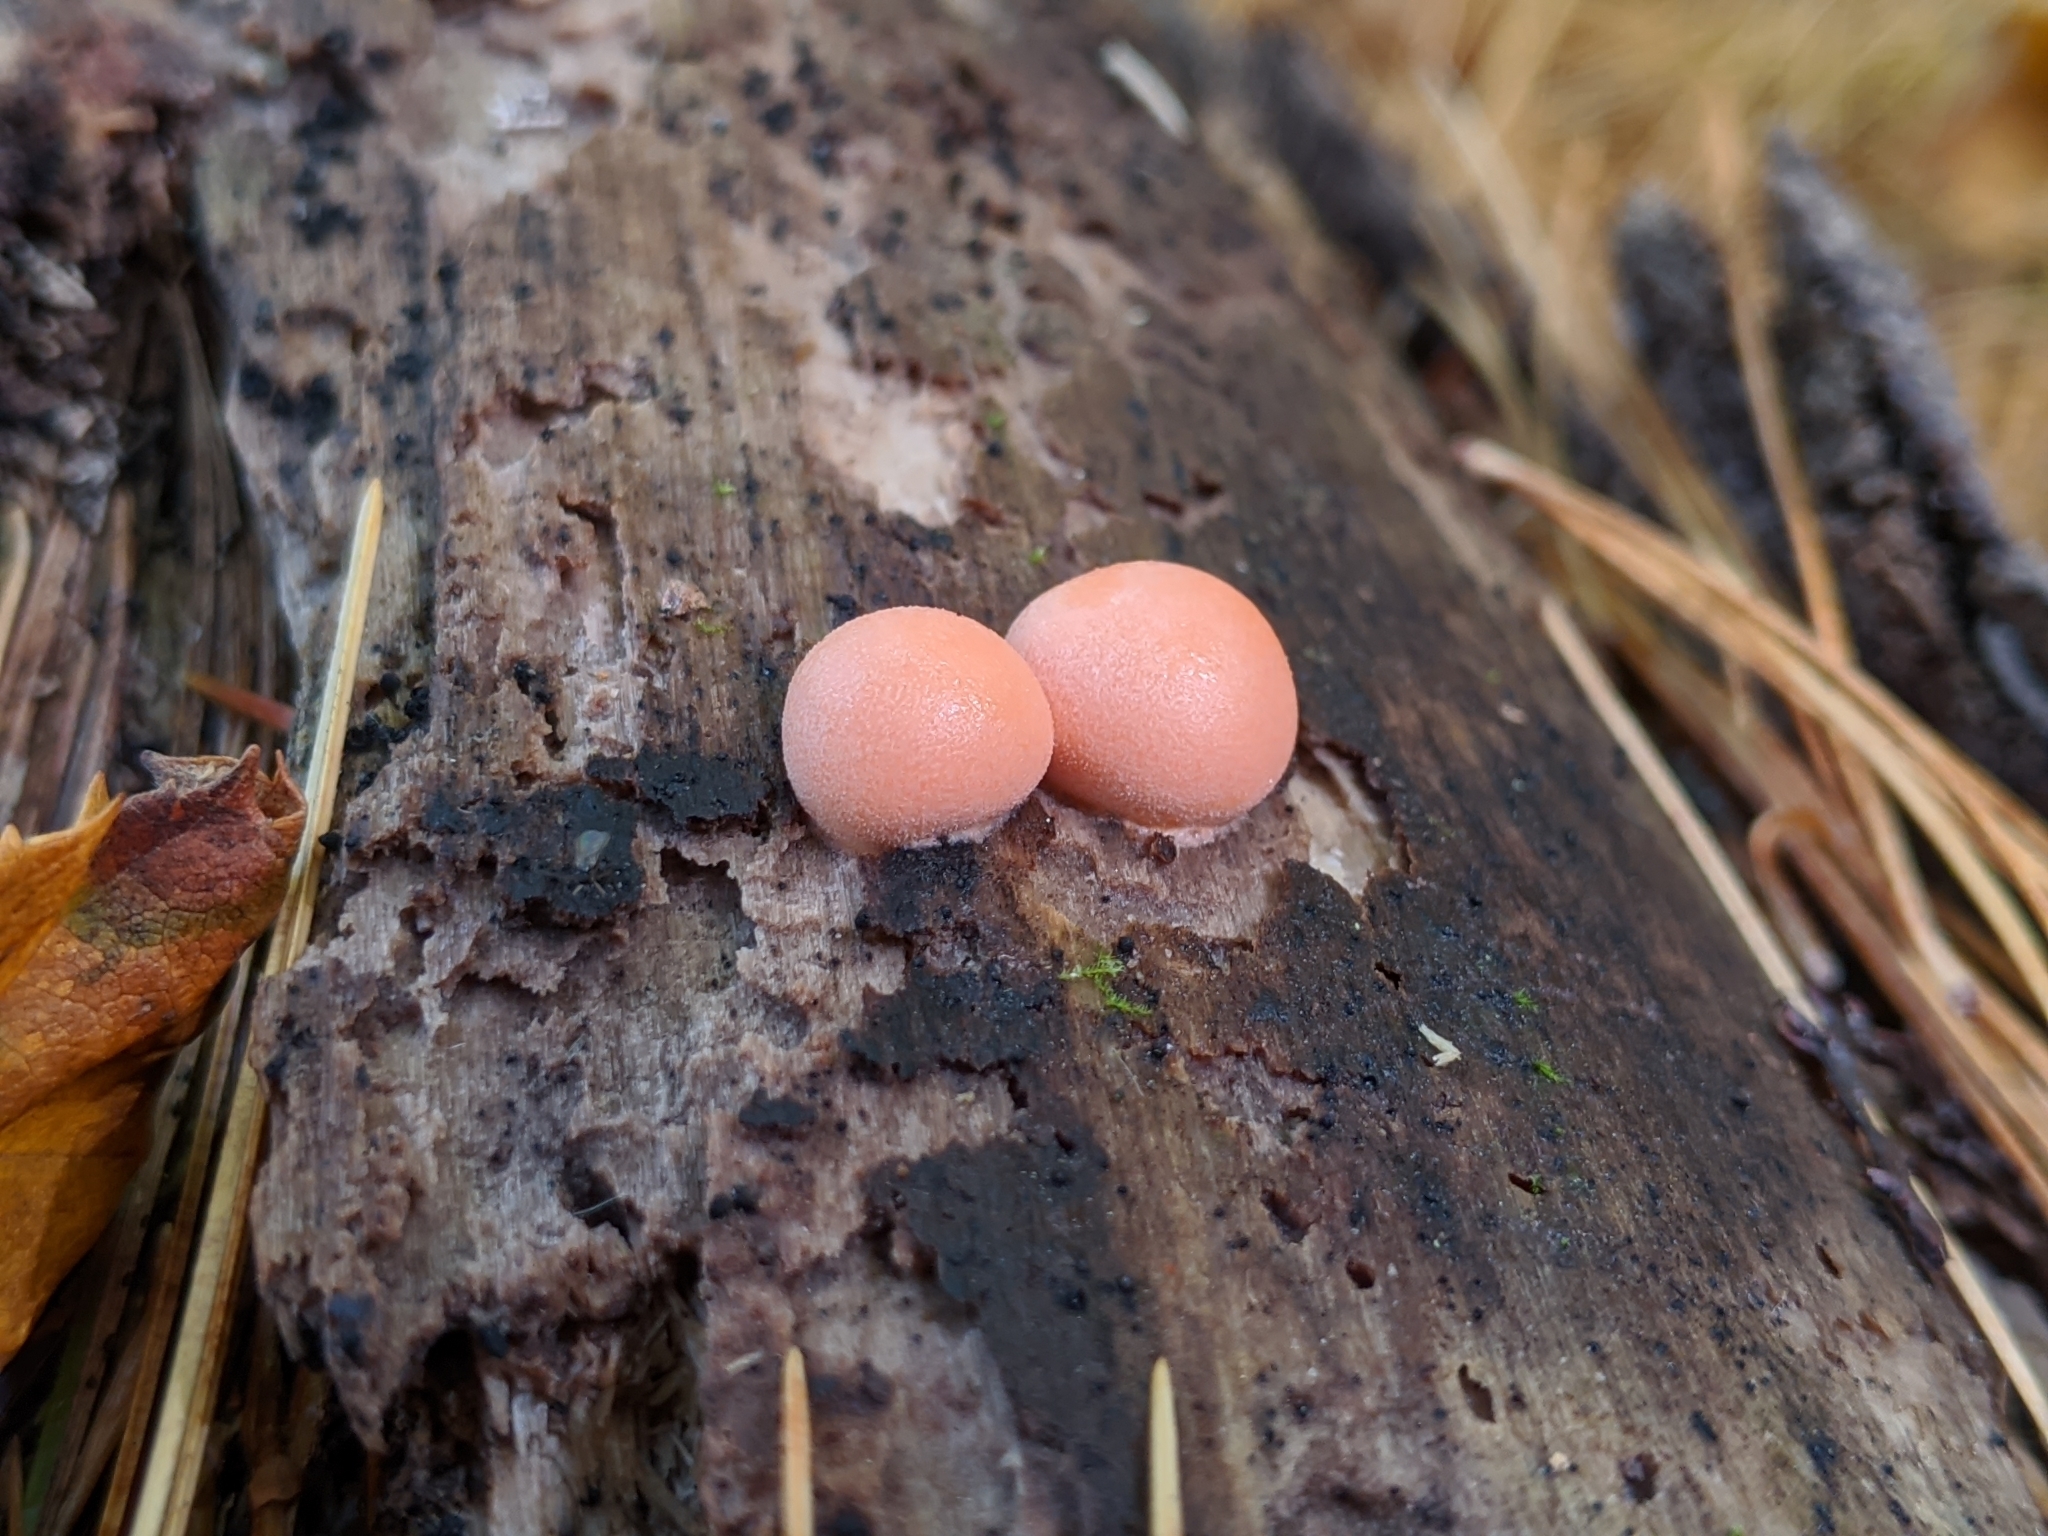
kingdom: Protozoa
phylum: Mycetozoa
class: Myxomycetes
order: Cribrariales
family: Tubiferaceae
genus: Lycogala
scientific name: Lycogala epidendrum
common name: Wolf's milk
